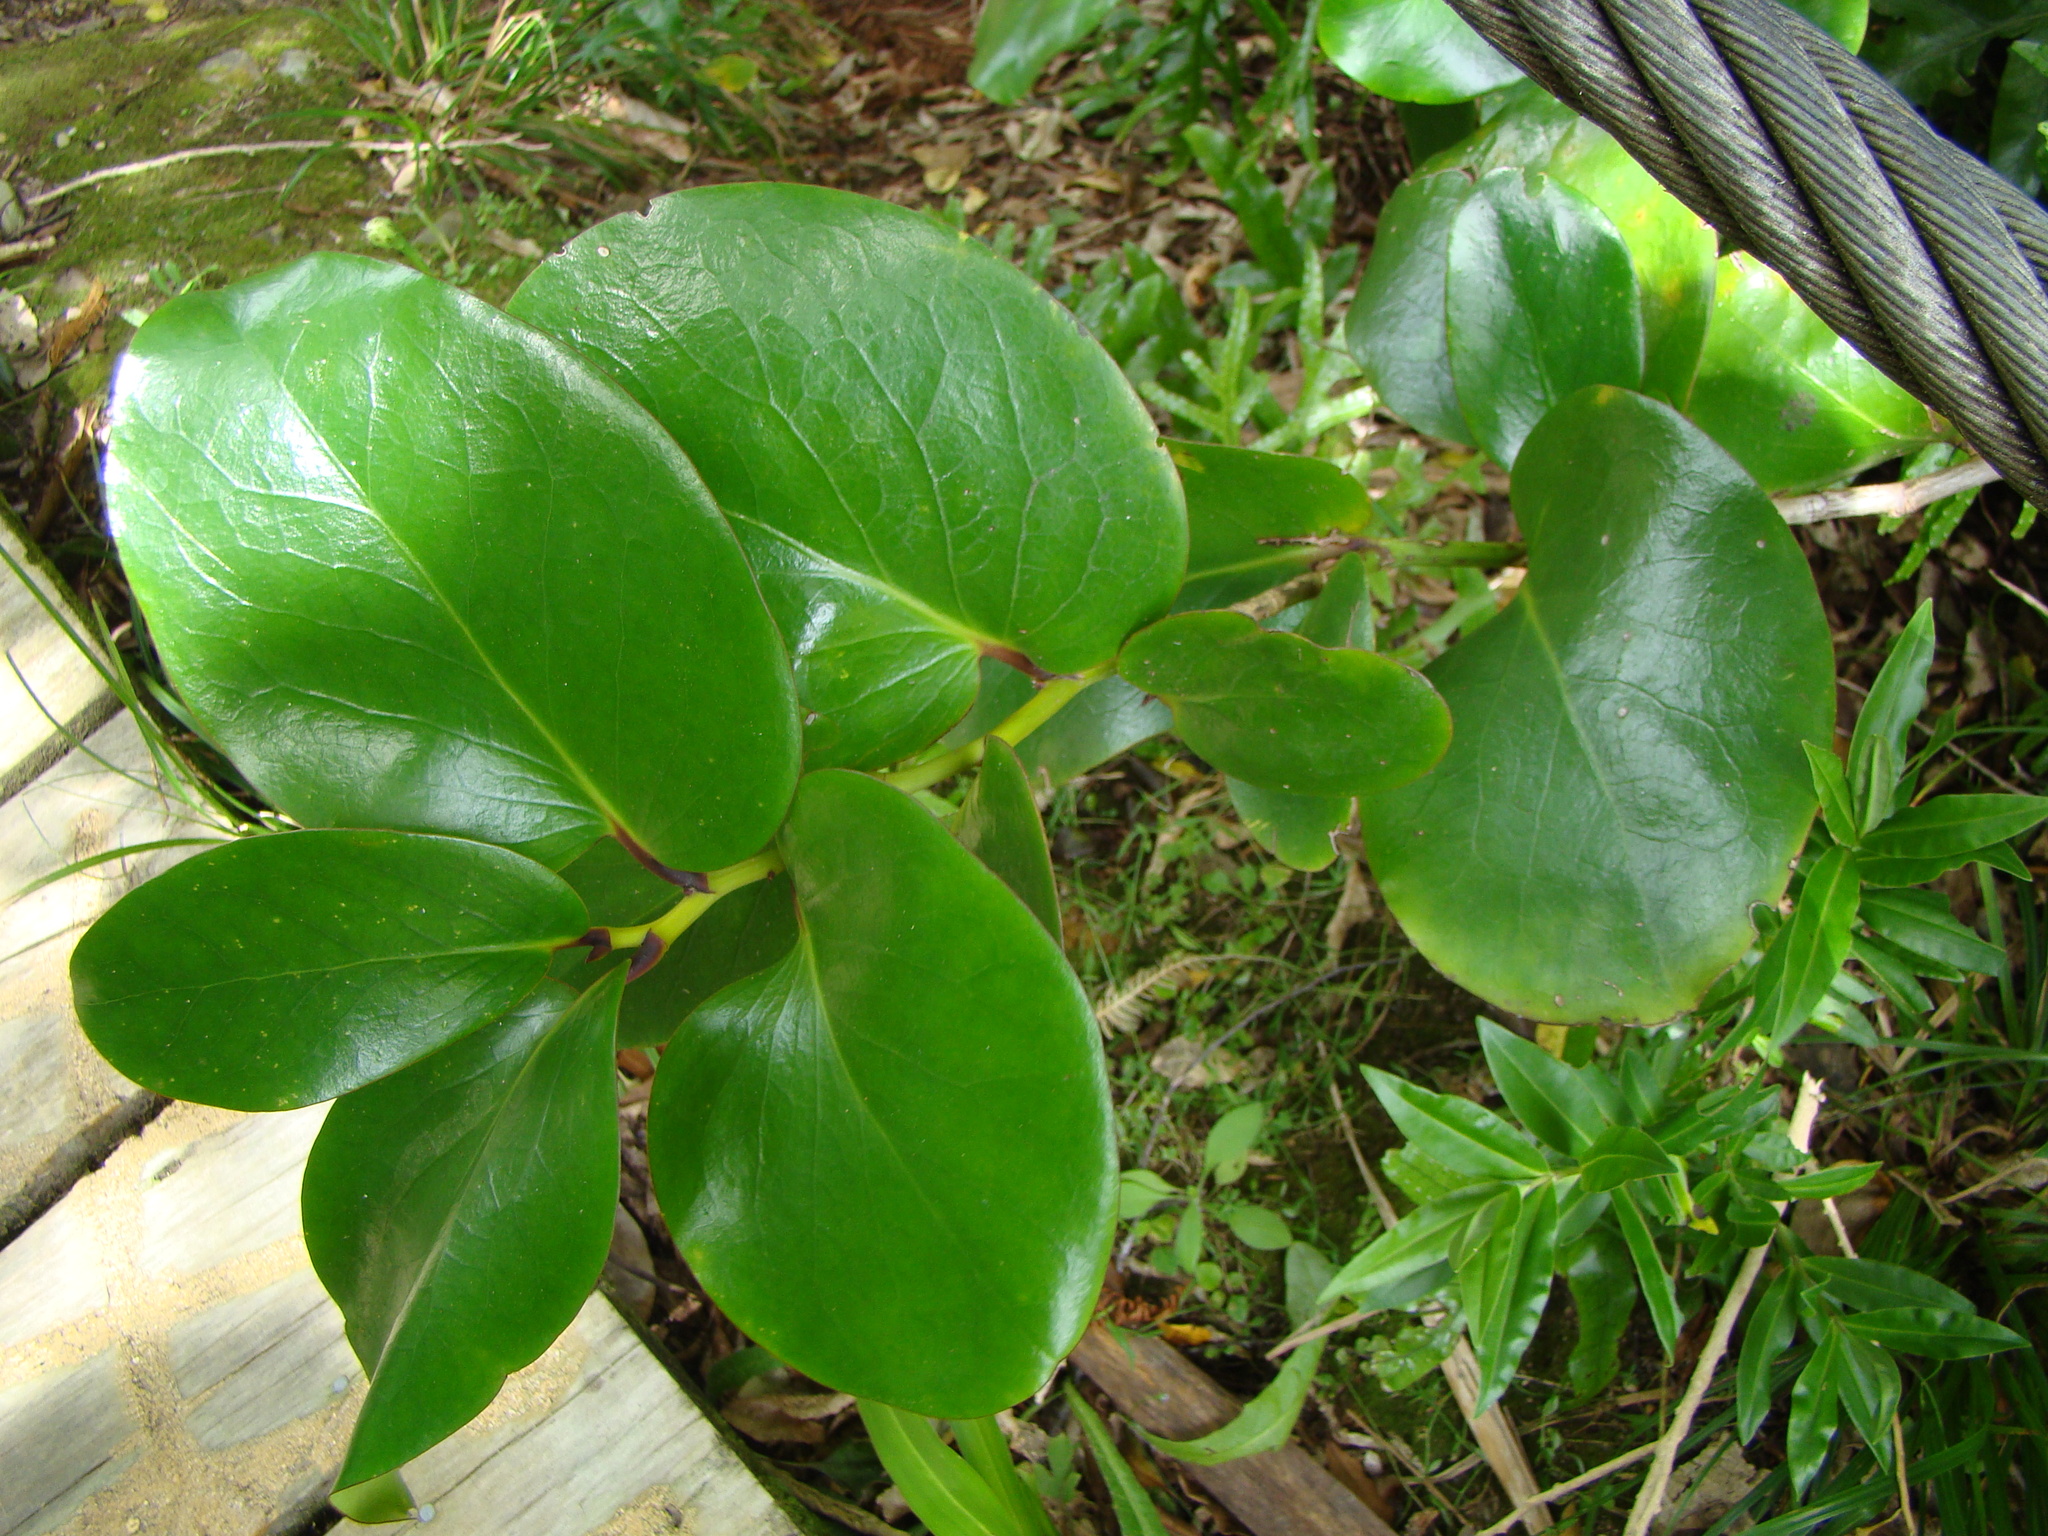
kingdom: Plantae
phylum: Tracheophyta
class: Magnoliopsida
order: Apiales
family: Griseliniaceae
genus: Griselinia
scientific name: Griselinia lucida
